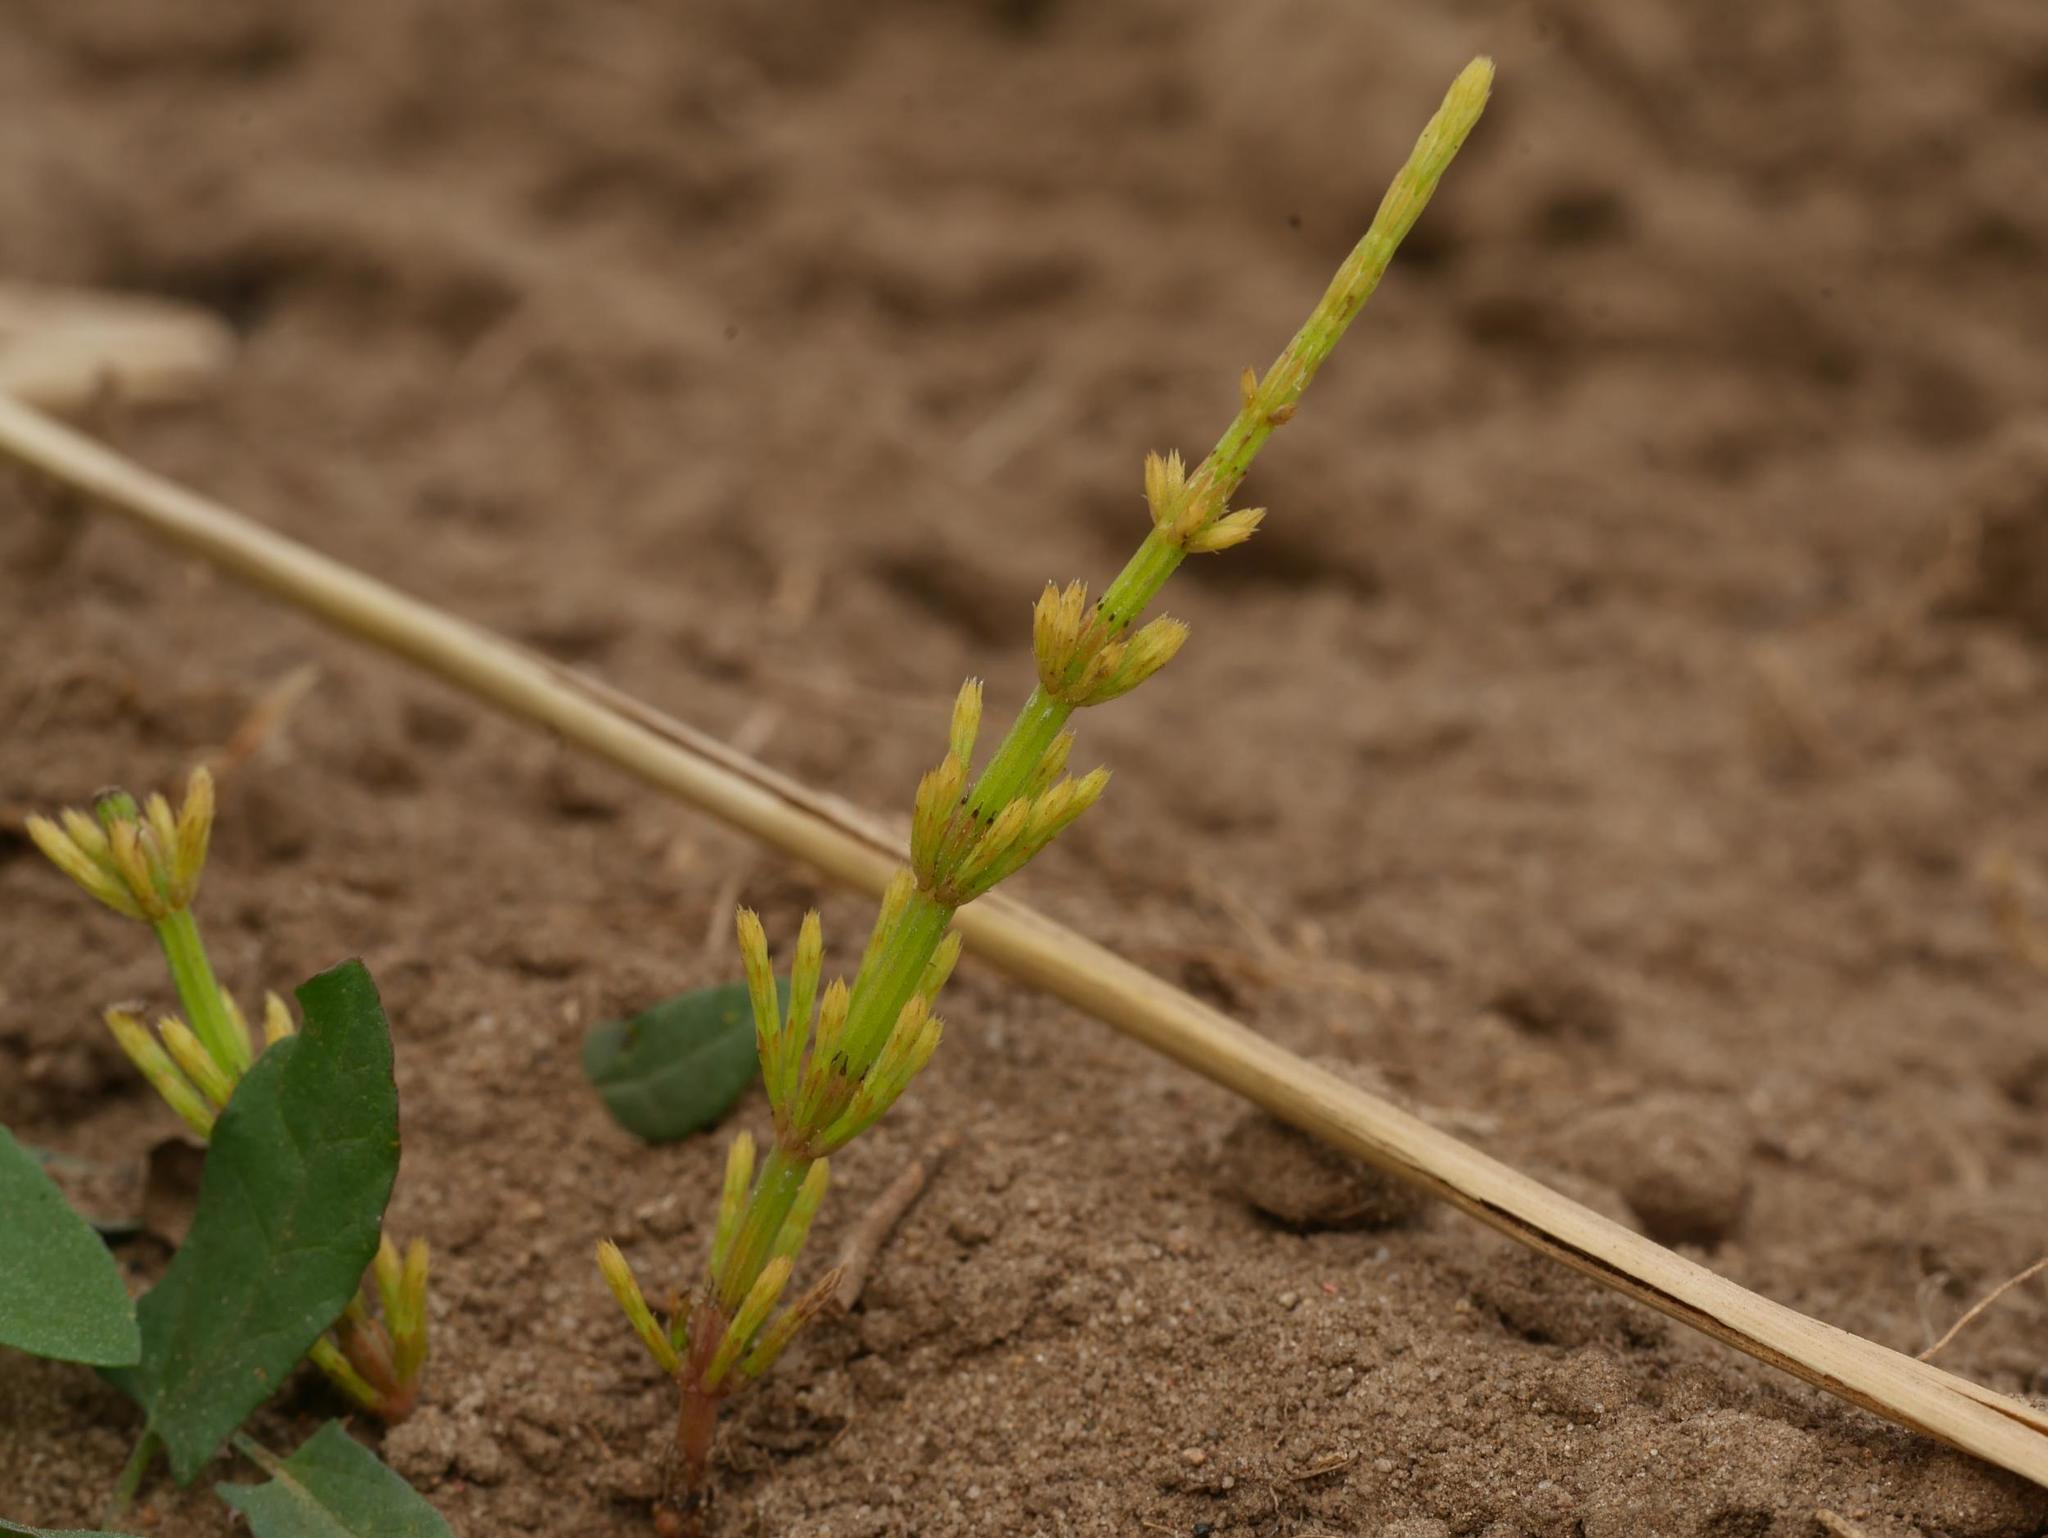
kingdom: Plantae
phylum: Tracheophyta
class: Polypodiopsida
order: Equisetales
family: Equisetaceae
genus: Equisetum
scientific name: Equisetum arvense
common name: Field horsetail
